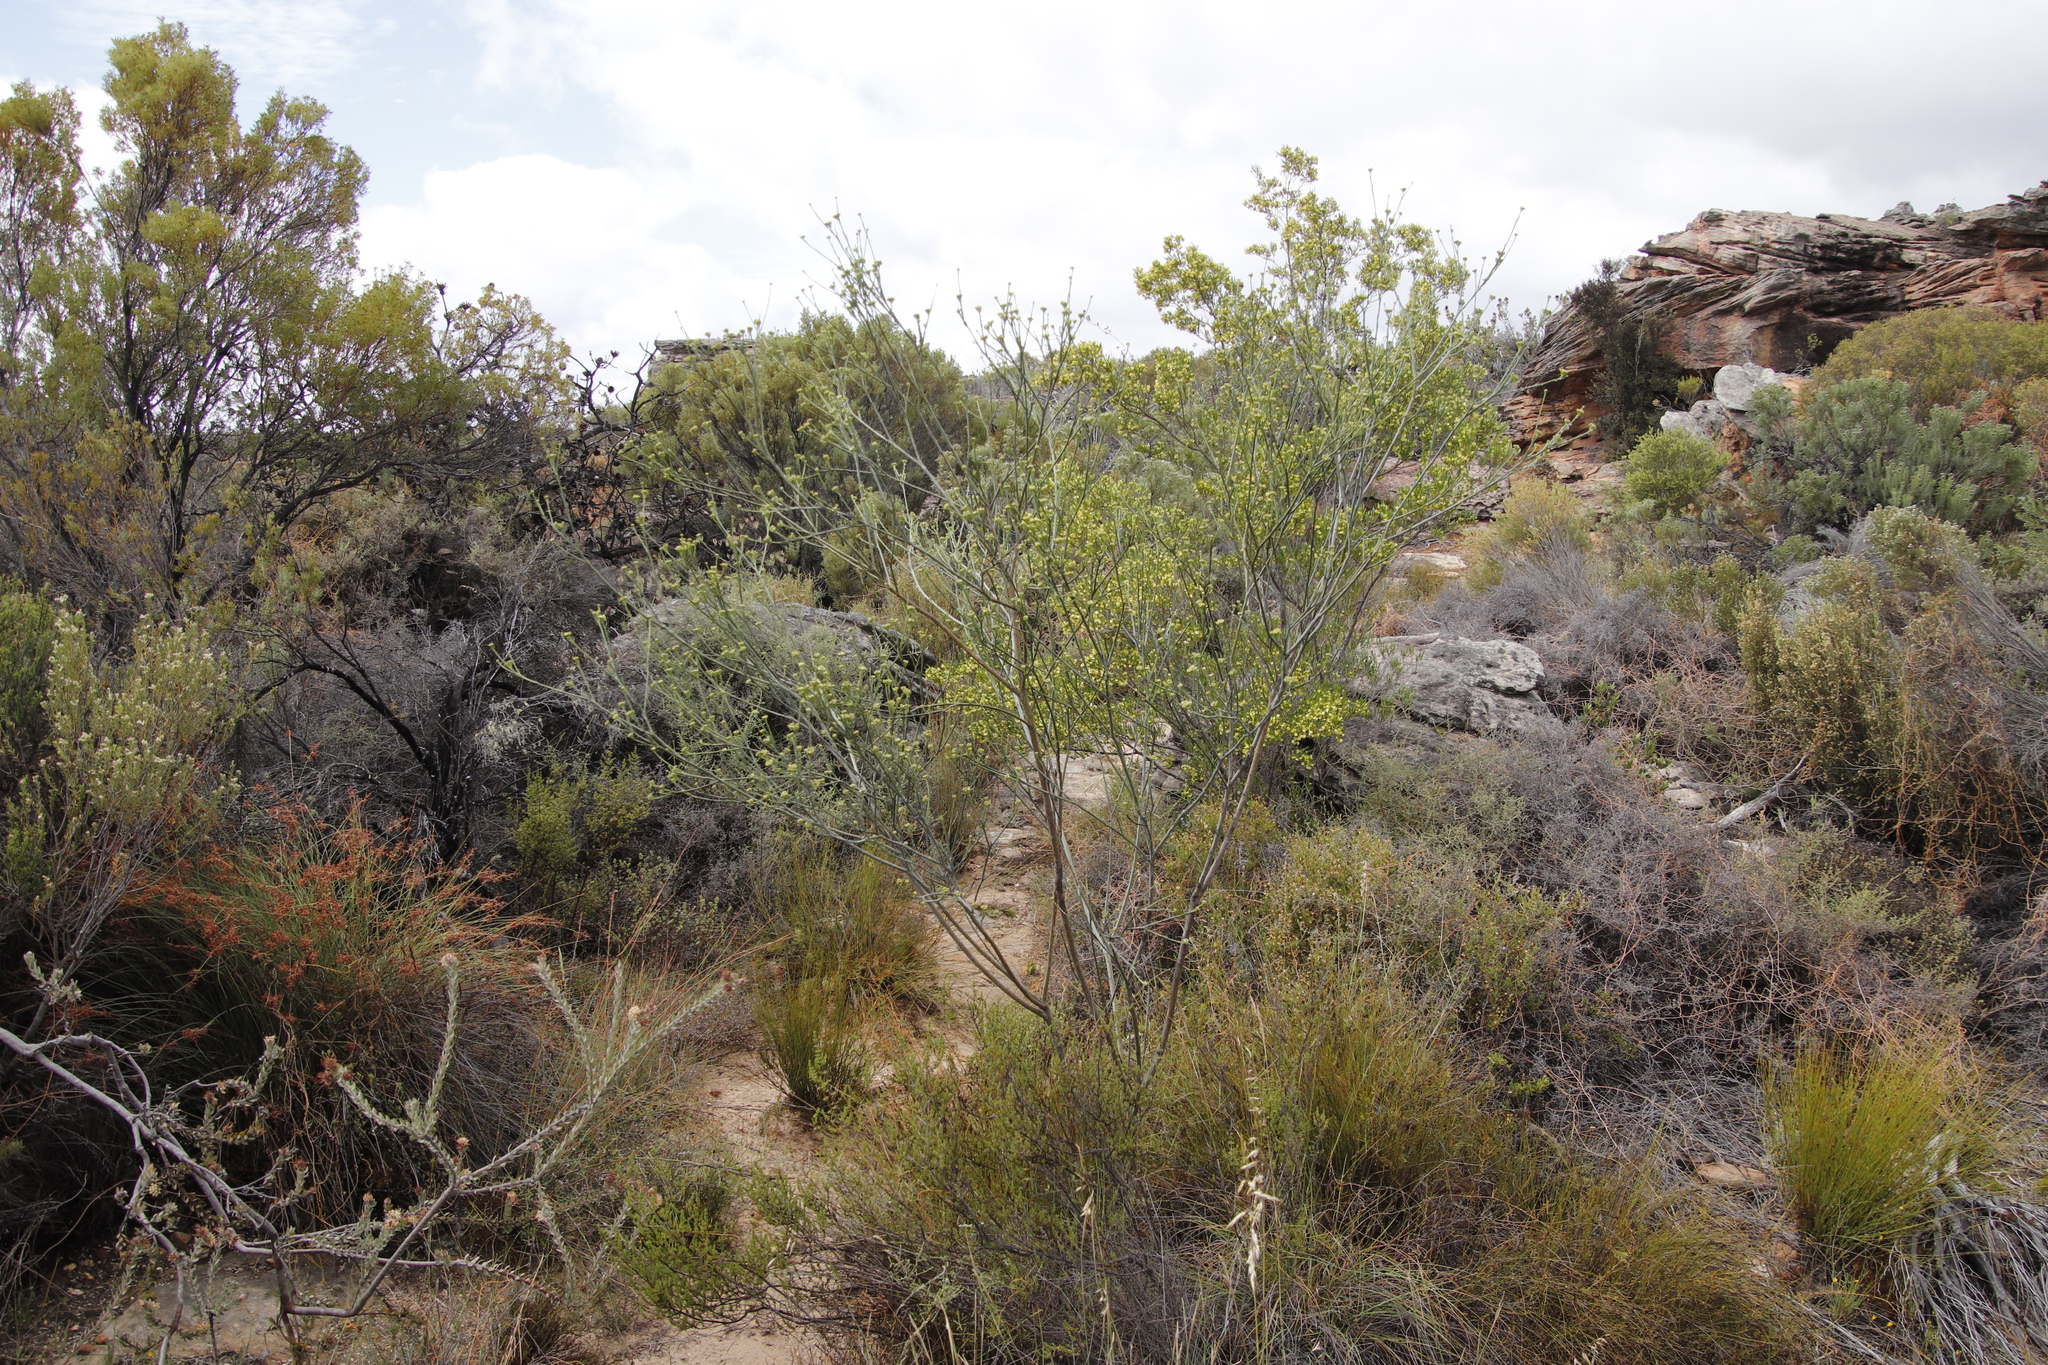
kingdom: Plantae
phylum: Tracheophyta
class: Magnoliopsida
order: Sapindales
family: Sapindaceae
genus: Dodonaea
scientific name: Dodonaea viscosa
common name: Hopbush
